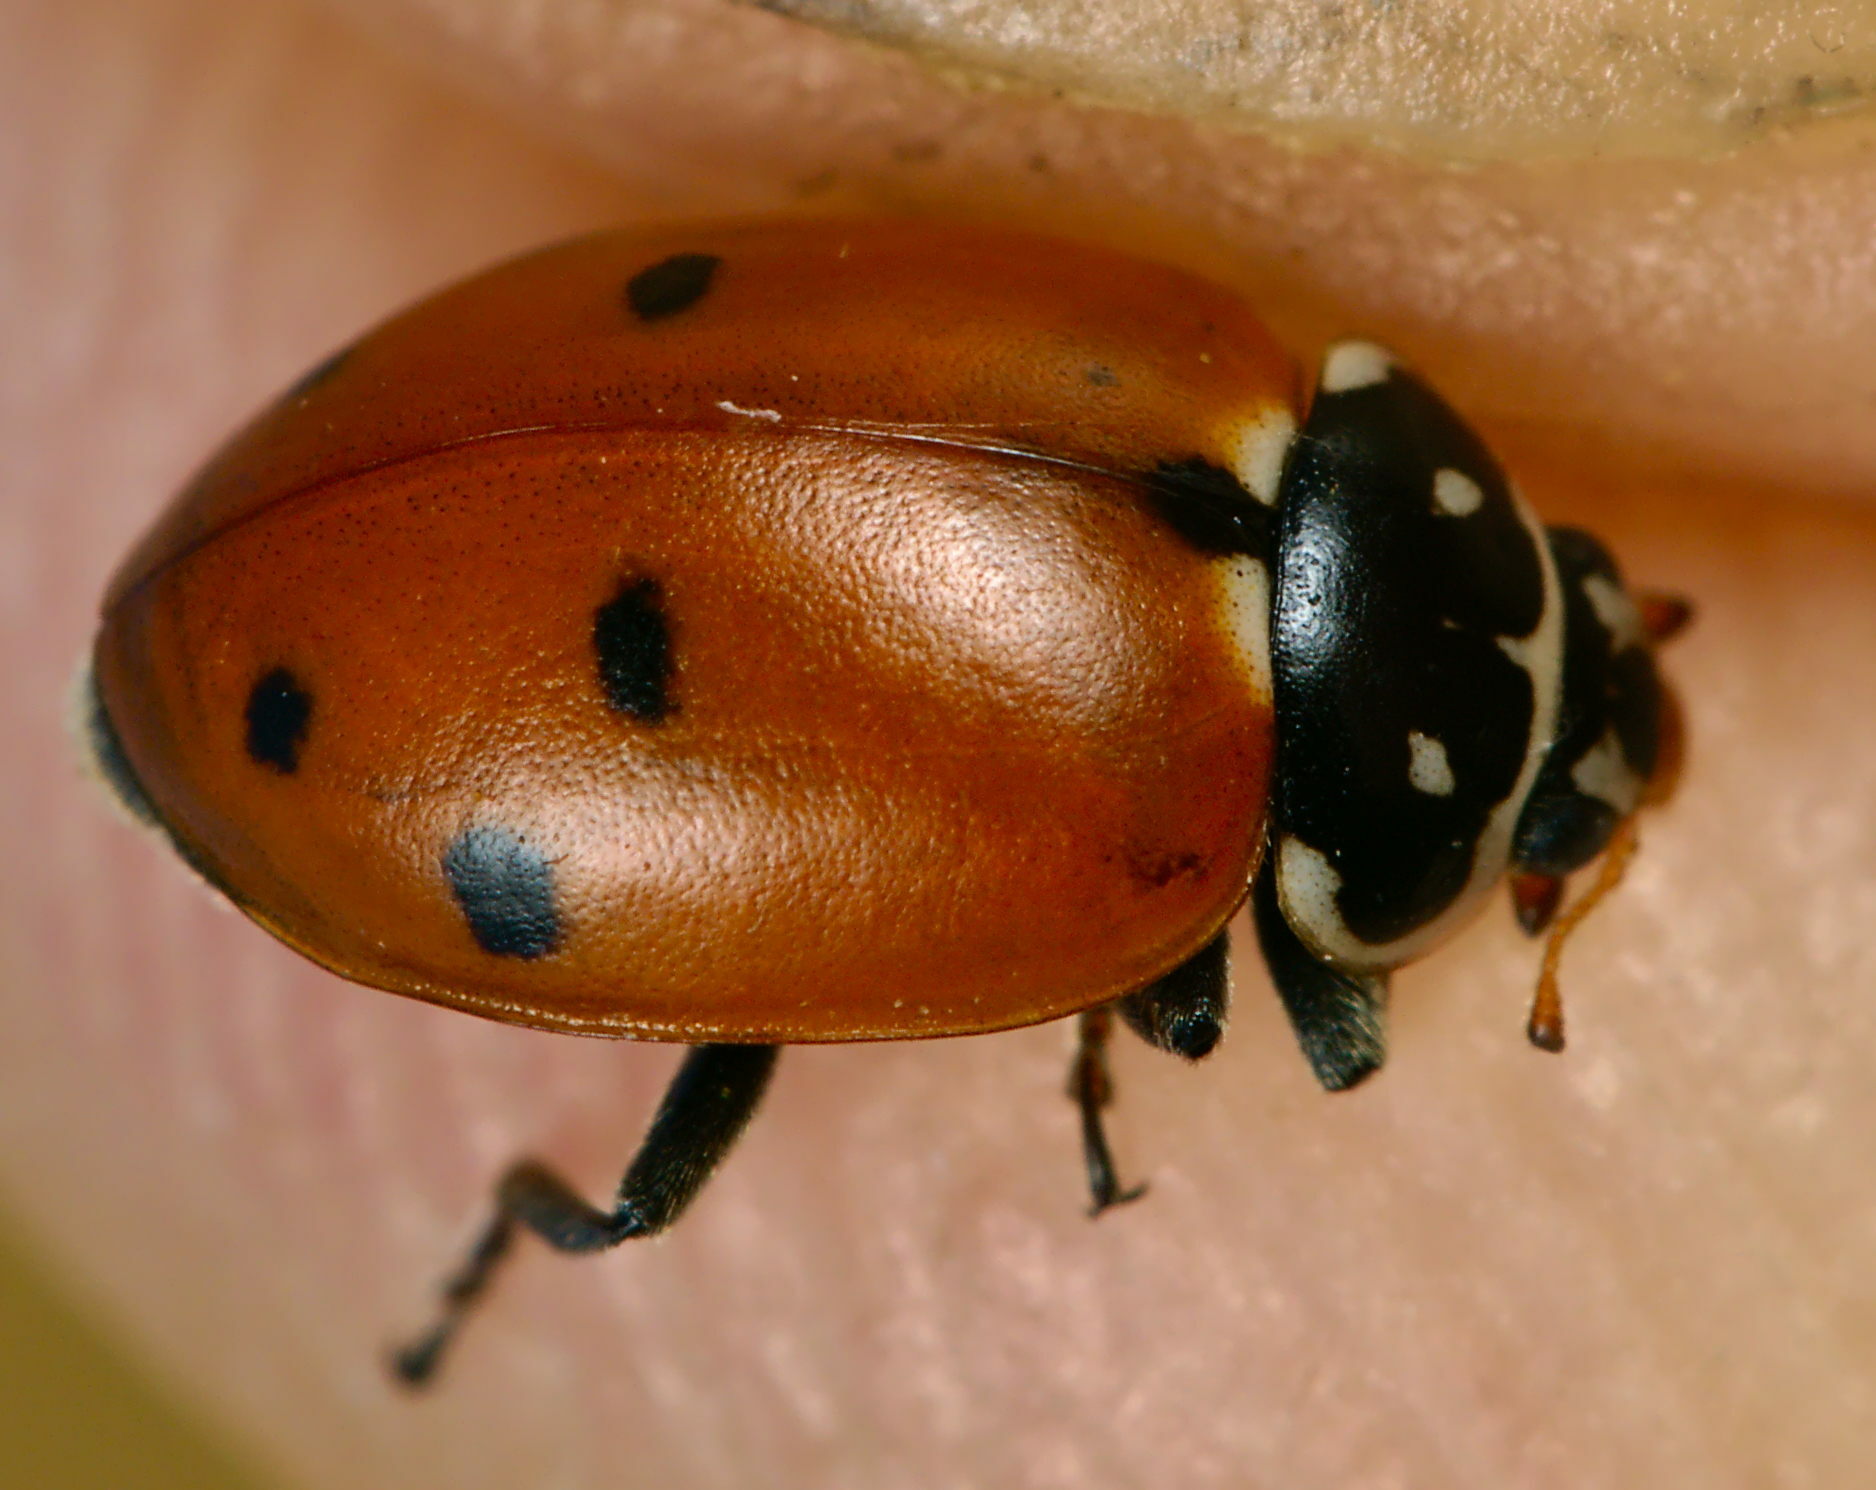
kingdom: Animalia
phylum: Arthropoda
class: Insecta
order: Coleoptera
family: Coccinellidae
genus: Hippodamia
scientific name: Hippodamia variegata
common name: Ladybird beetle
